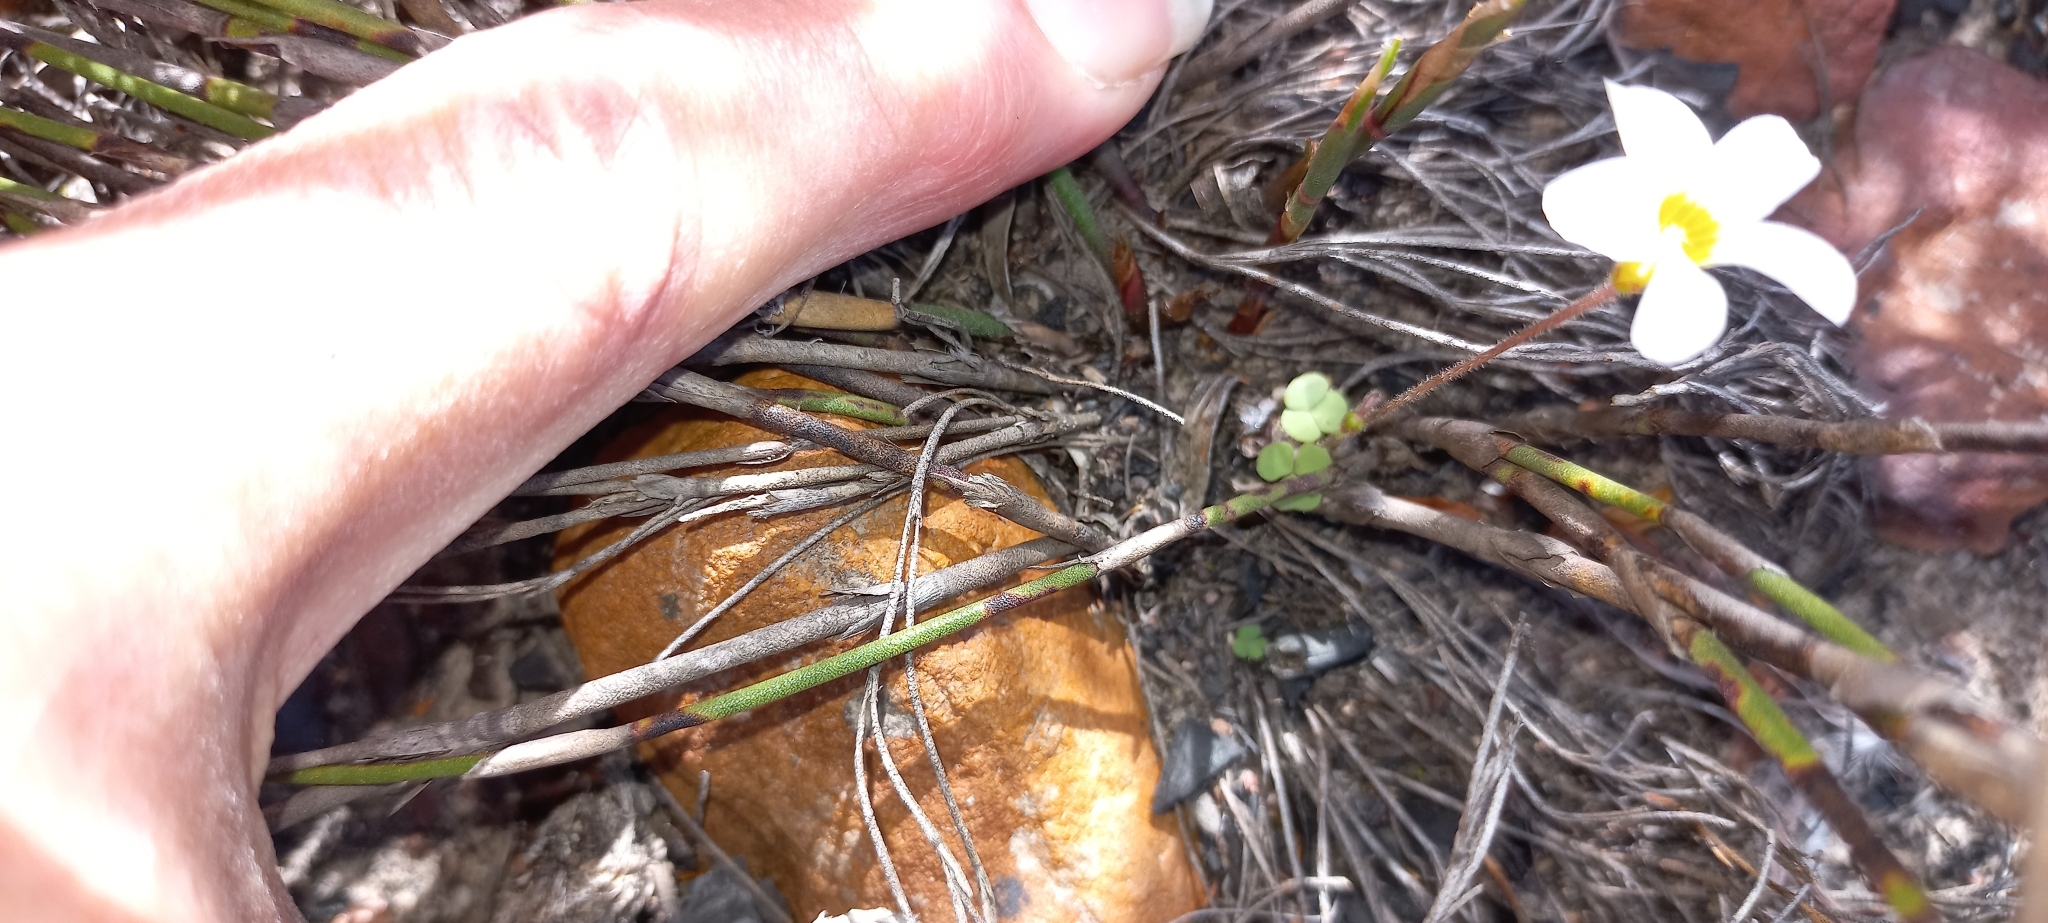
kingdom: Plantae
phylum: Tracheophyta
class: Magnoliopsida
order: Oxalidales
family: Oxalidaceae
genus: Oxalis
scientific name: Oxalis punctata
